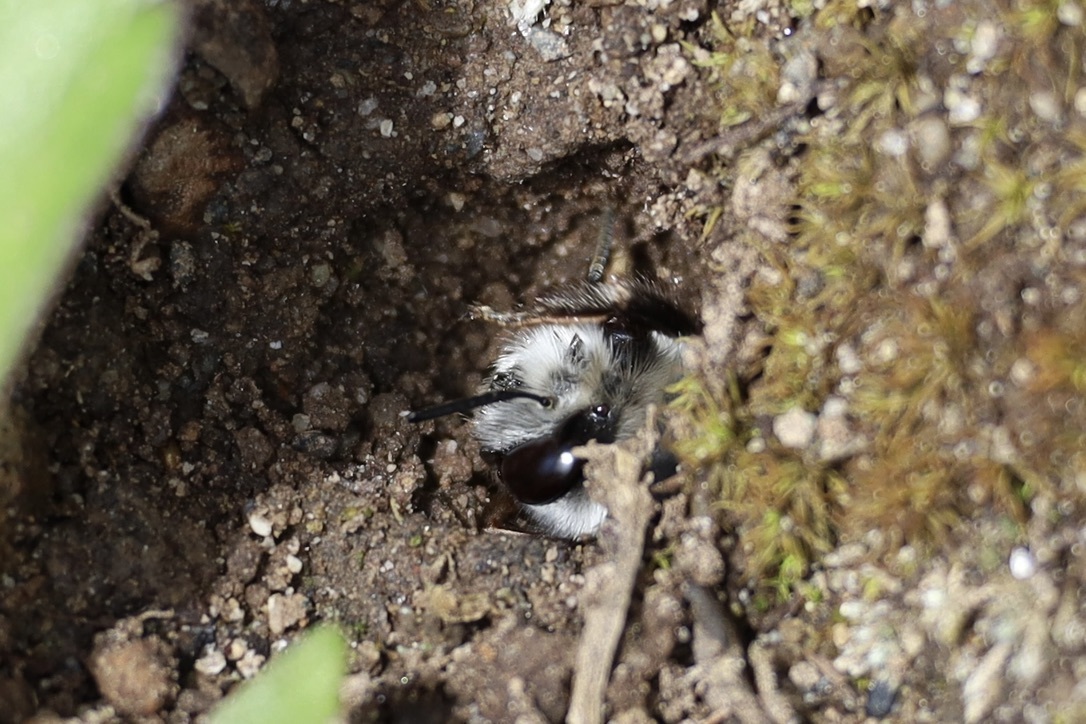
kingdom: Animalia
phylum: Arthropoda
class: Insecta
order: Hymenoptera
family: Apidae
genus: Anthophora
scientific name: Anthophora pacifica
